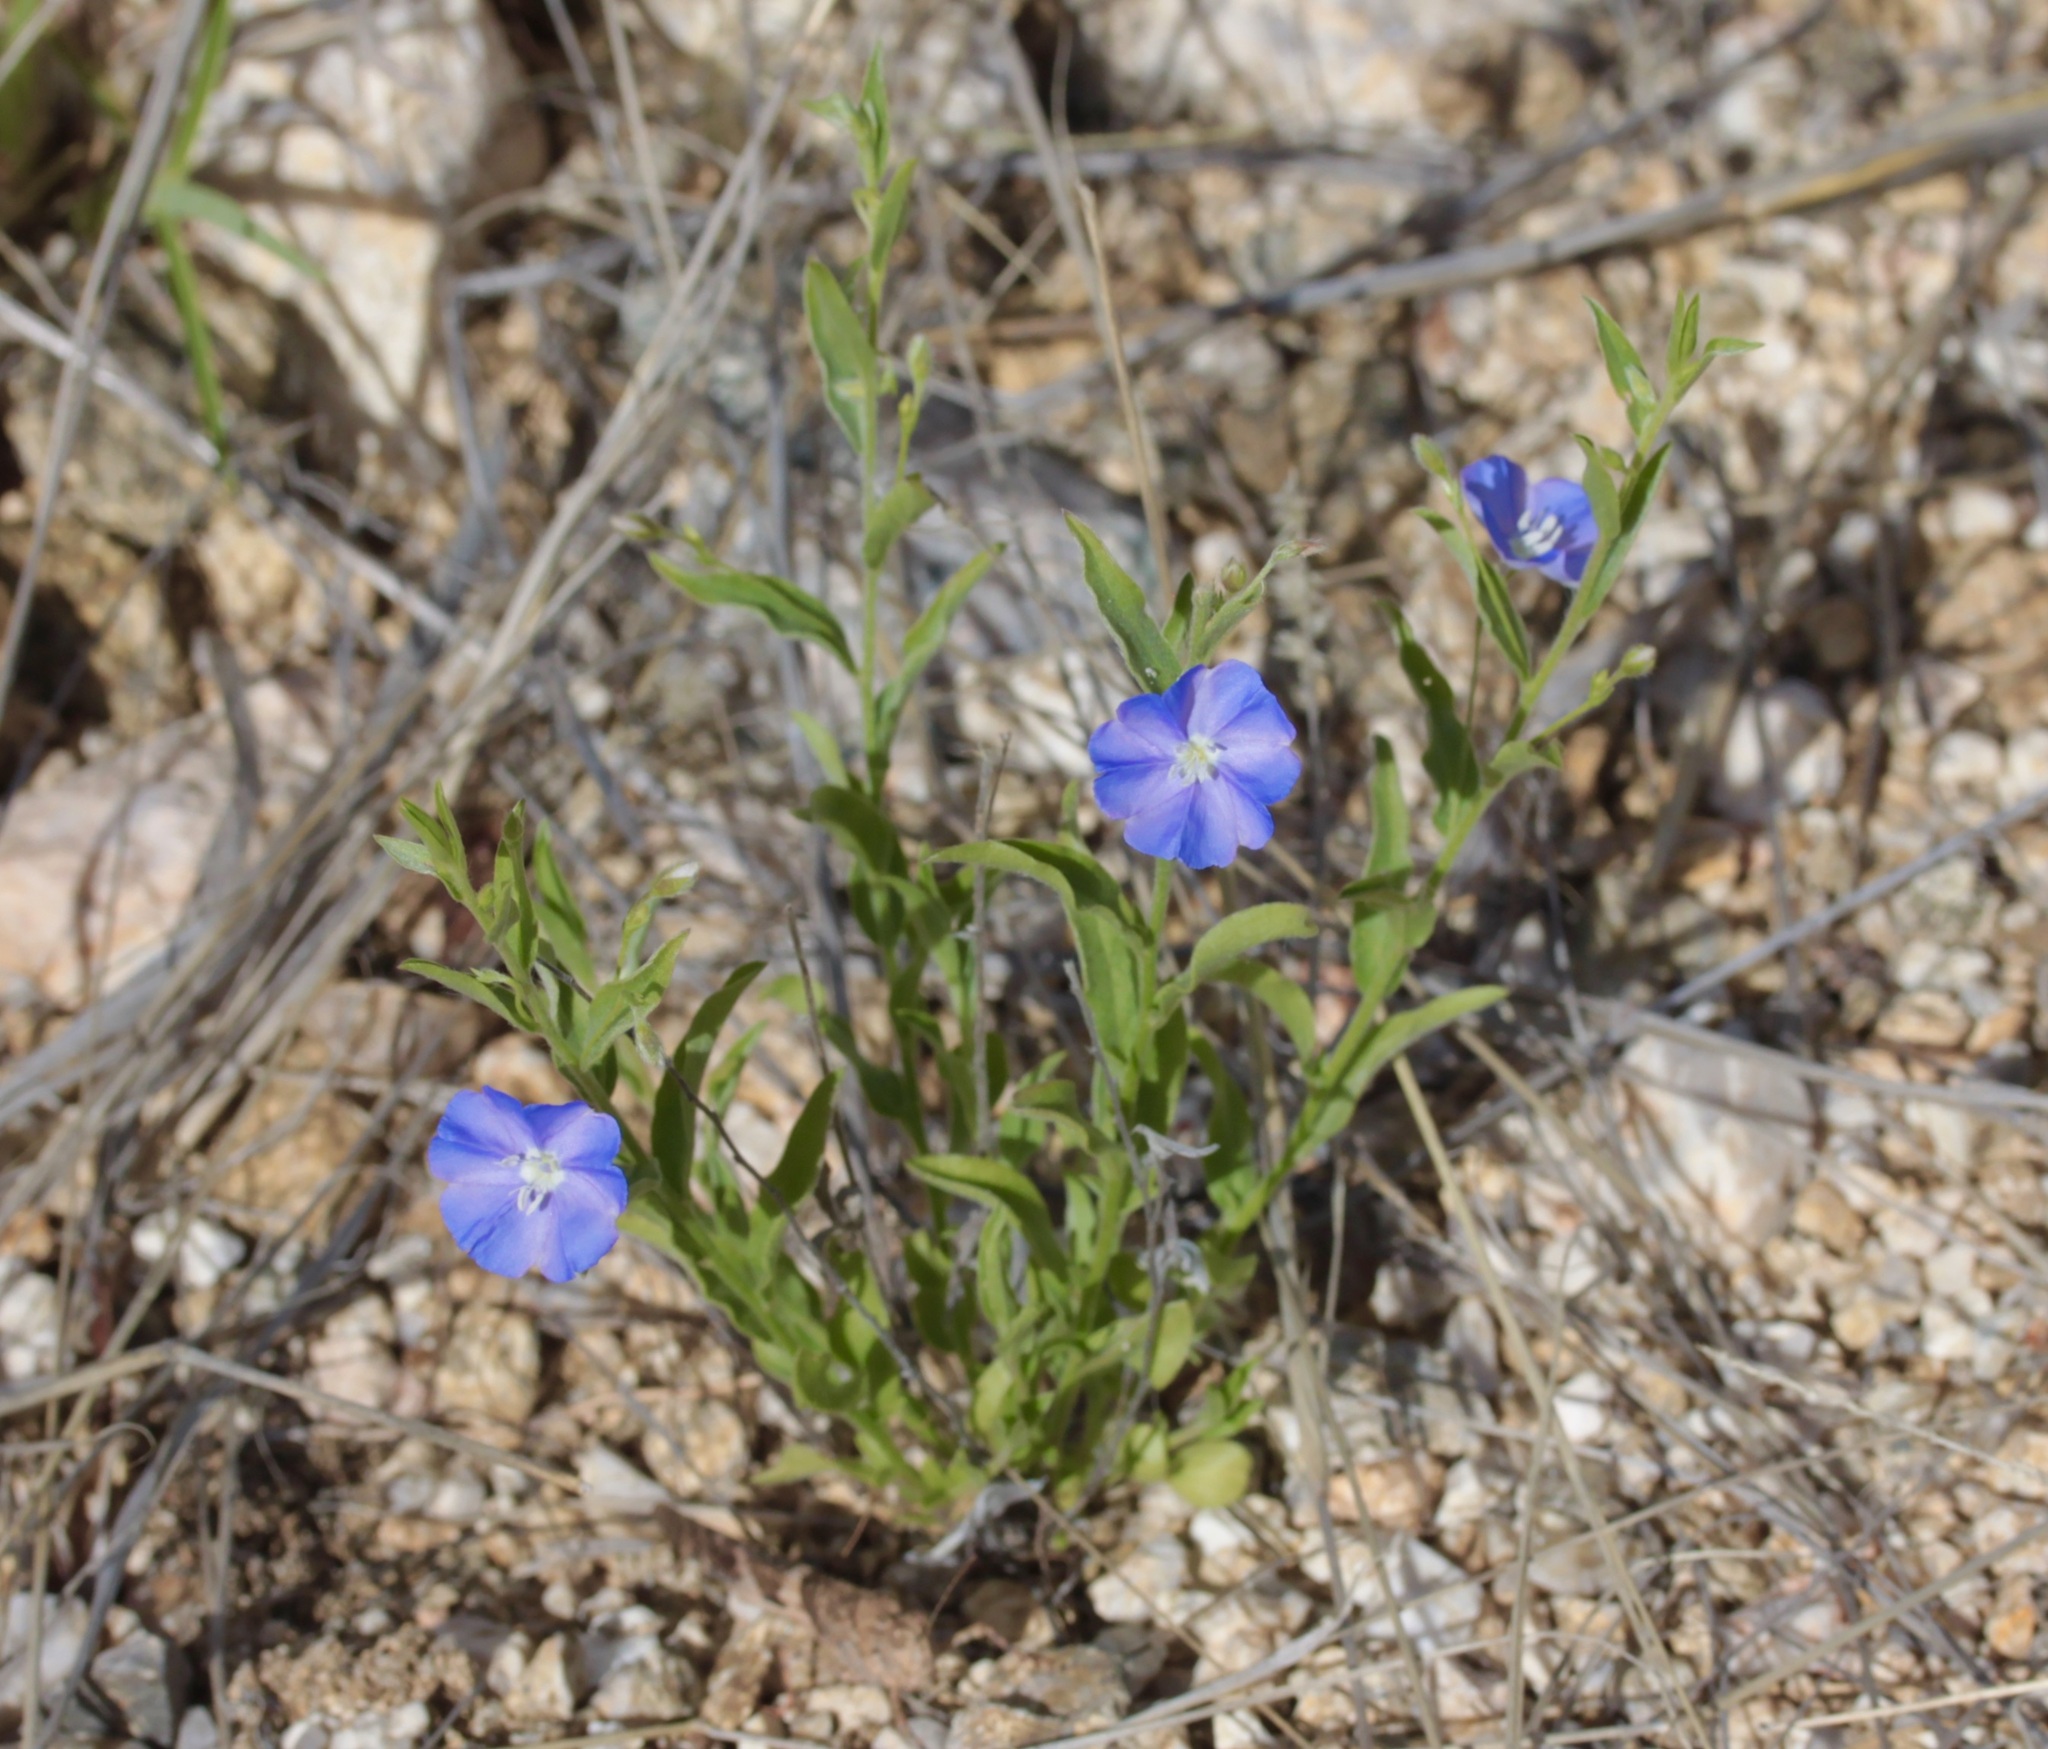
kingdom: Plantae
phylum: Tracheophyta
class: Magnoliopsida
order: Solanales
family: Convolvulaceae
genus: Evolvulus
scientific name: Evolvulus arizonicus
